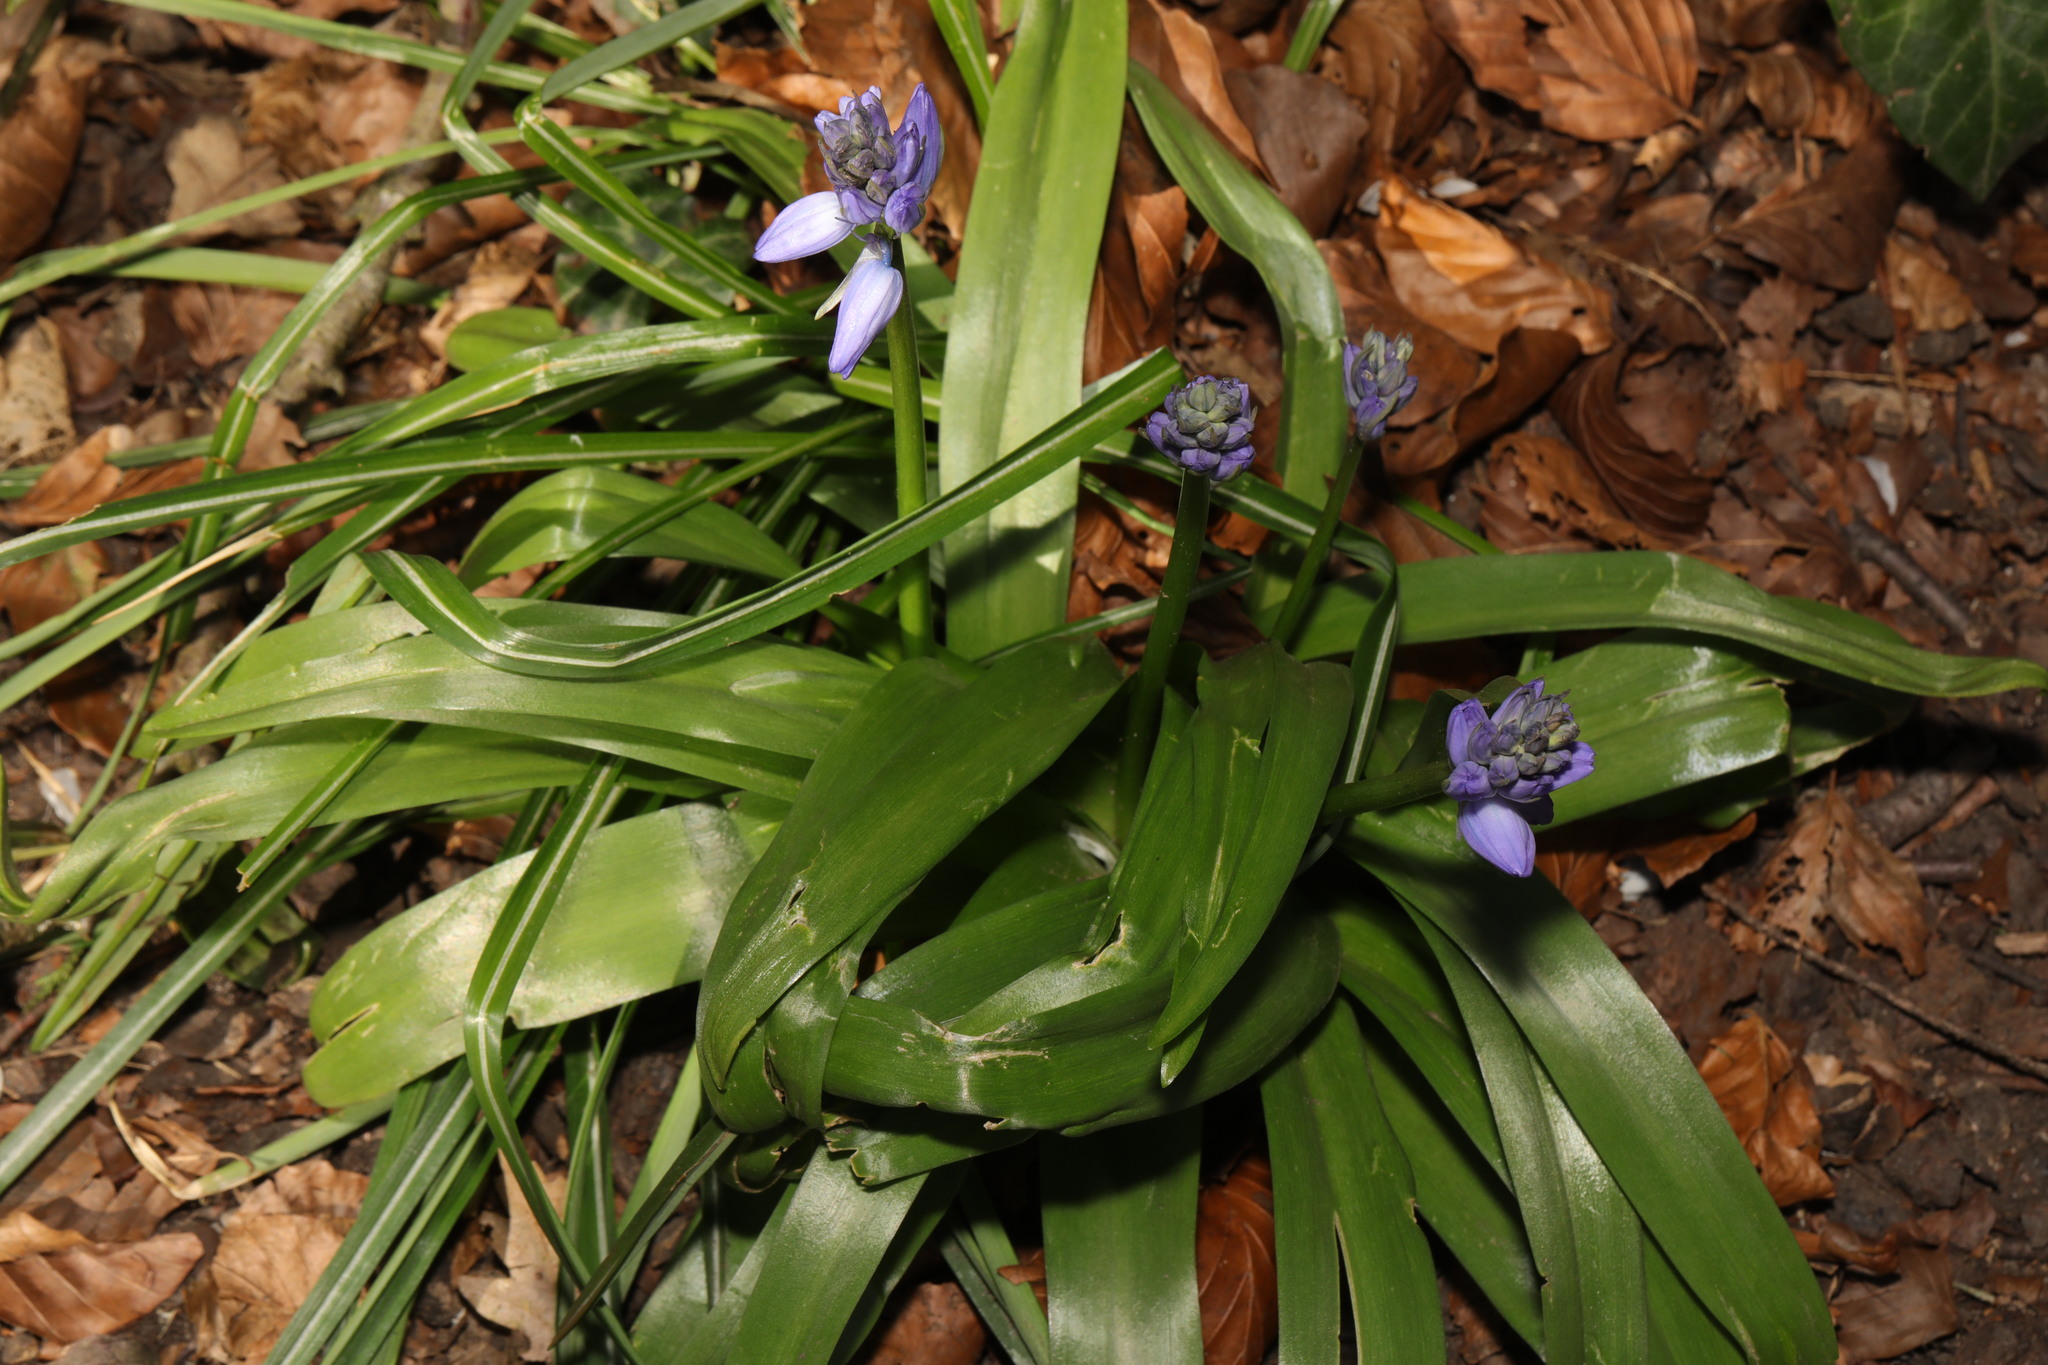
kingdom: Plantae
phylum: Tracheophyta
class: Liliopsida
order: Asparagales
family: Asparagaceae
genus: Hyacinthoides
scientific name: Hyacinthoides massartiana
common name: Hyacinthoides
